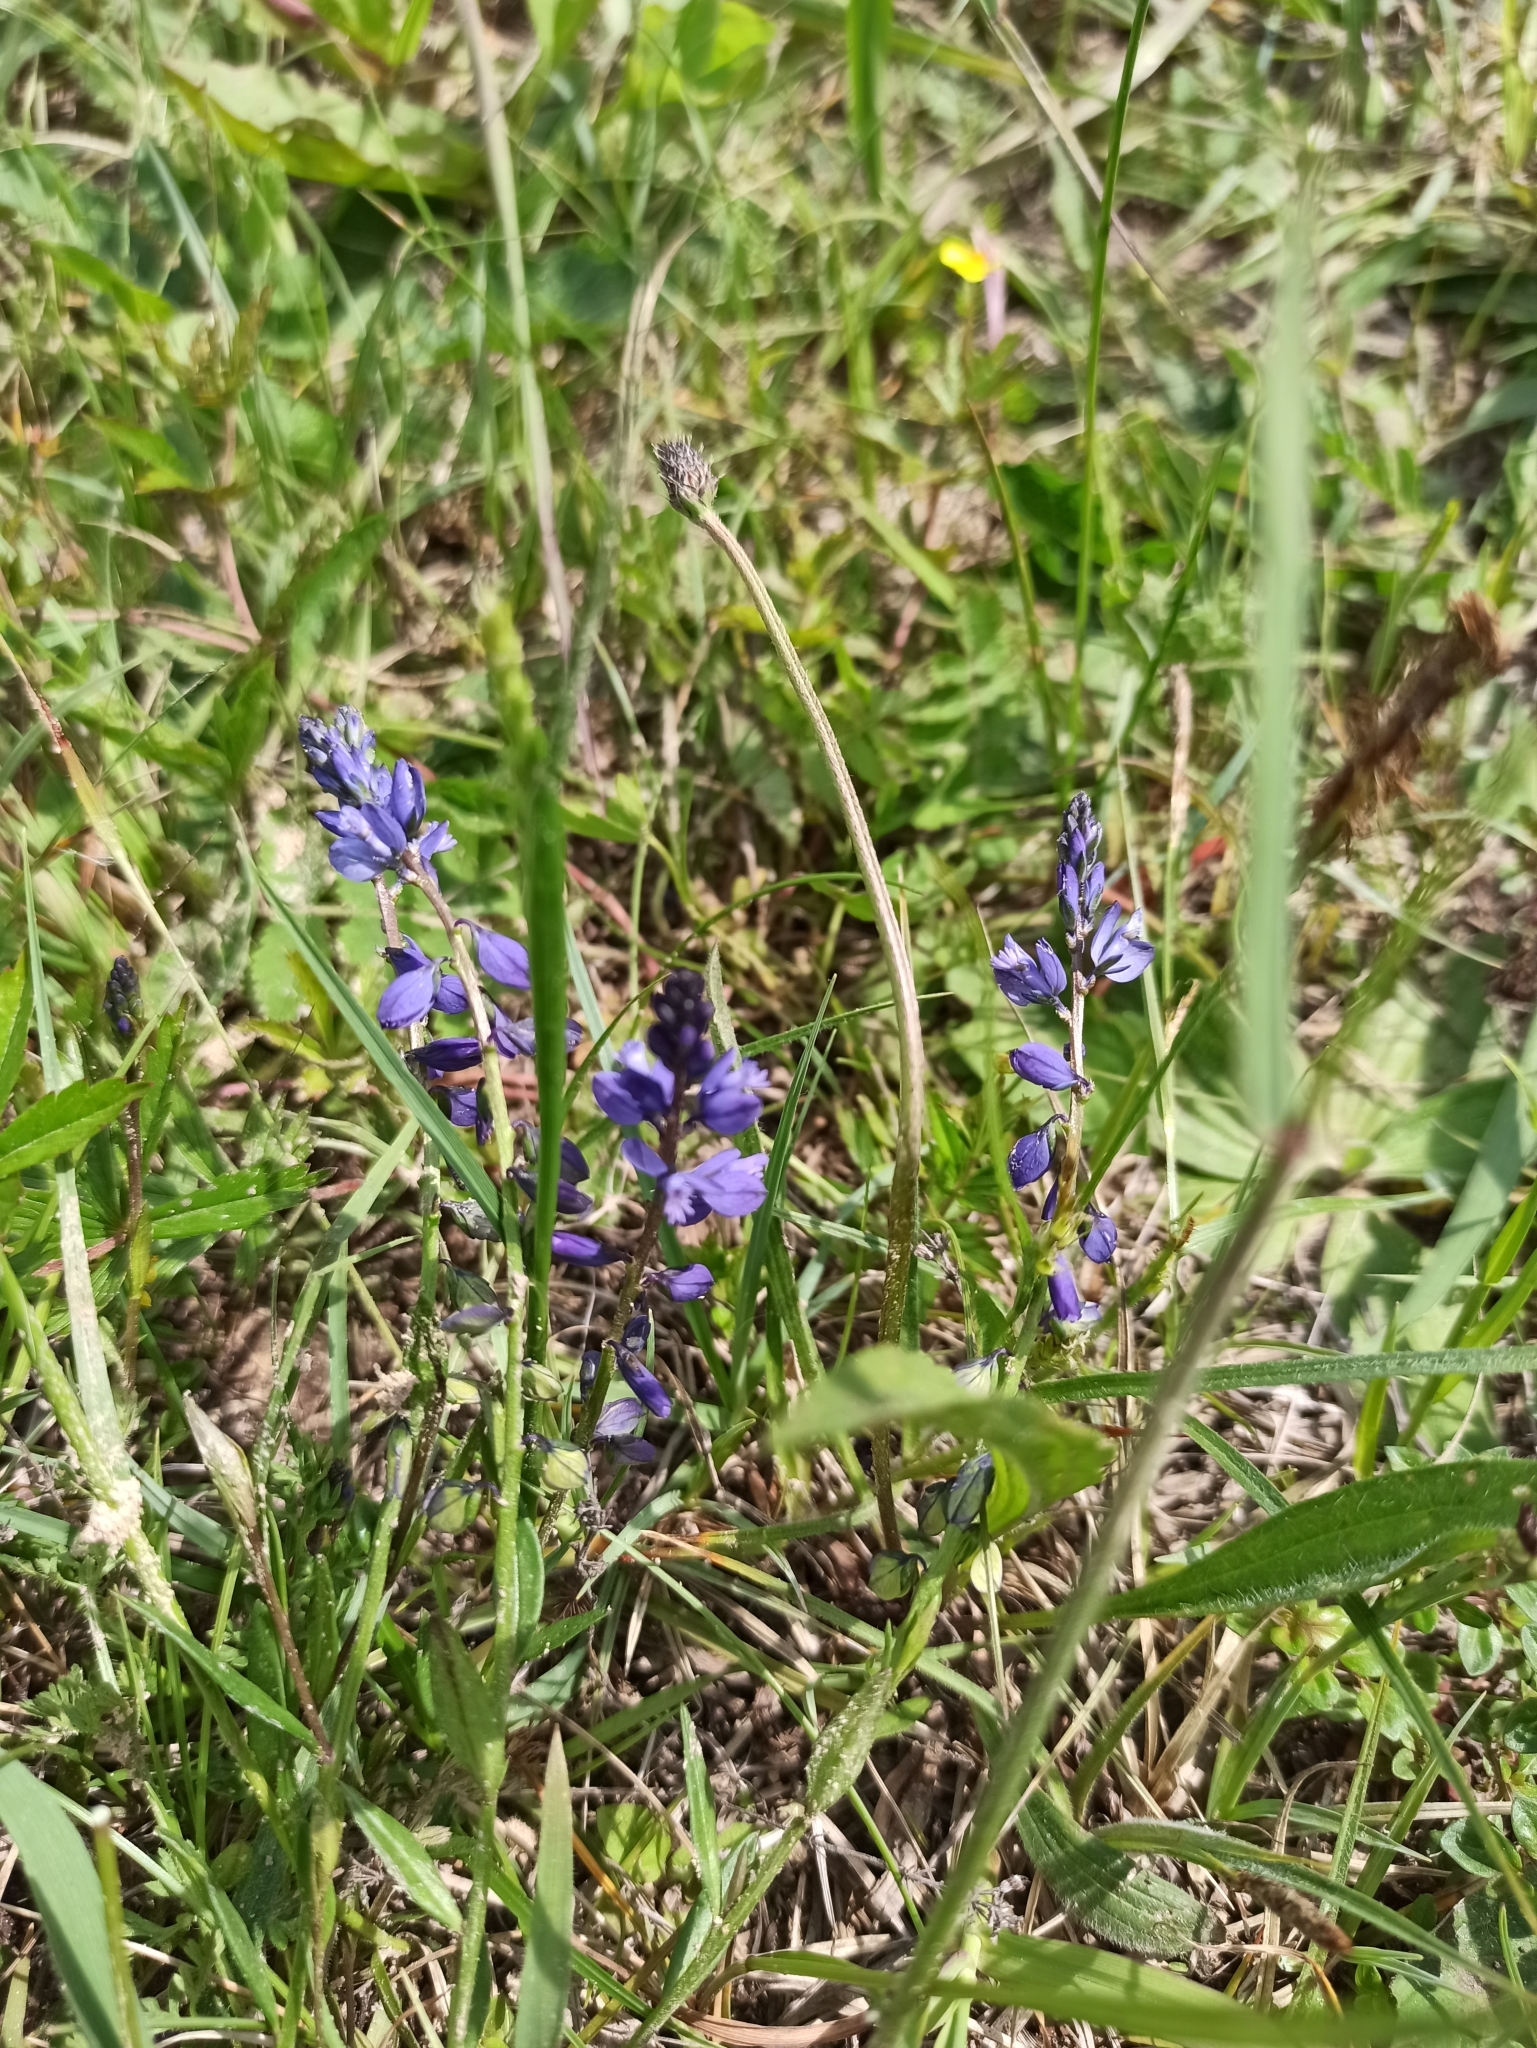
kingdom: Plantae
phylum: Tracheophyta
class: Magnoliopsida
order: Fabales
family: Polygalaceae
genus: Polygala
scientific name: Polygala vulgaris
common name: Common milkwort
